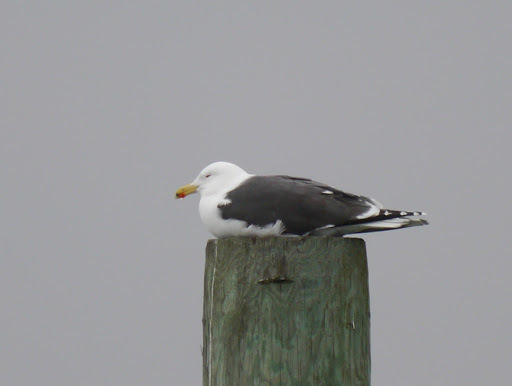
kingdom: Animalia
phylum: Chordata
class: Aves
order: Charadriiformes
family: Laridae
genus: Larus
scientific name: Larus marinus
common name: Great black-backed gull
